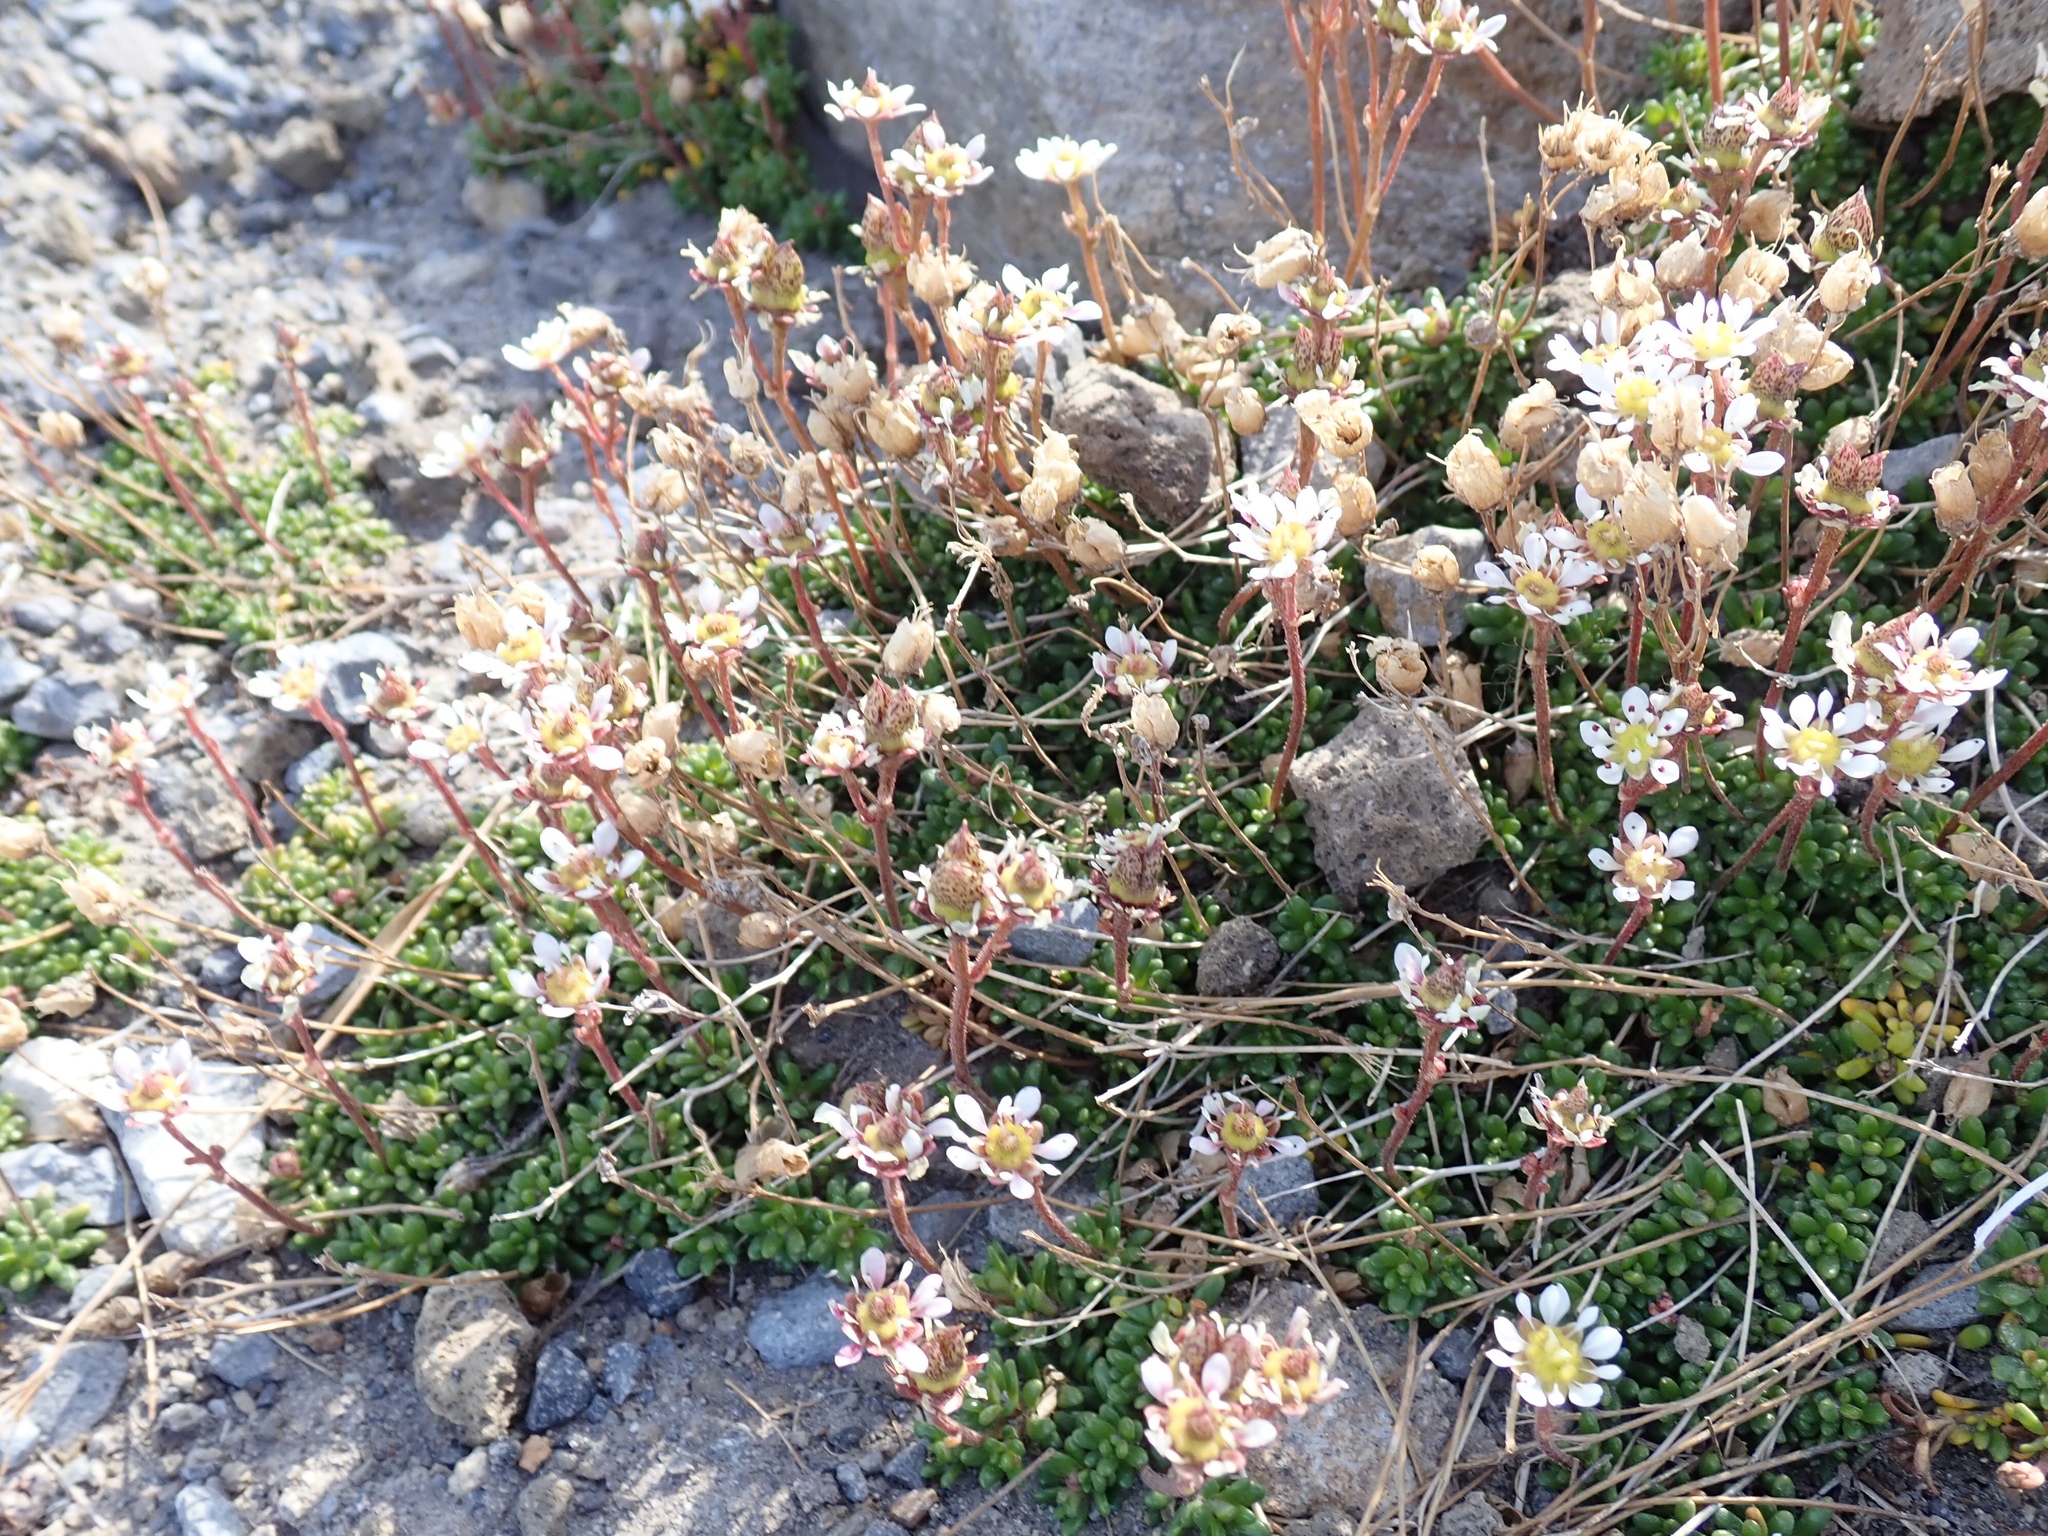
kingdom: Plantae
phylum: Tracheophyta
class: Magnoliopsida
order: Saxifragales
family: Saxifragaceae
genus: Micranthes
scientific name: Micranthes tolmiei
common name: Tolmie's saxifrage
